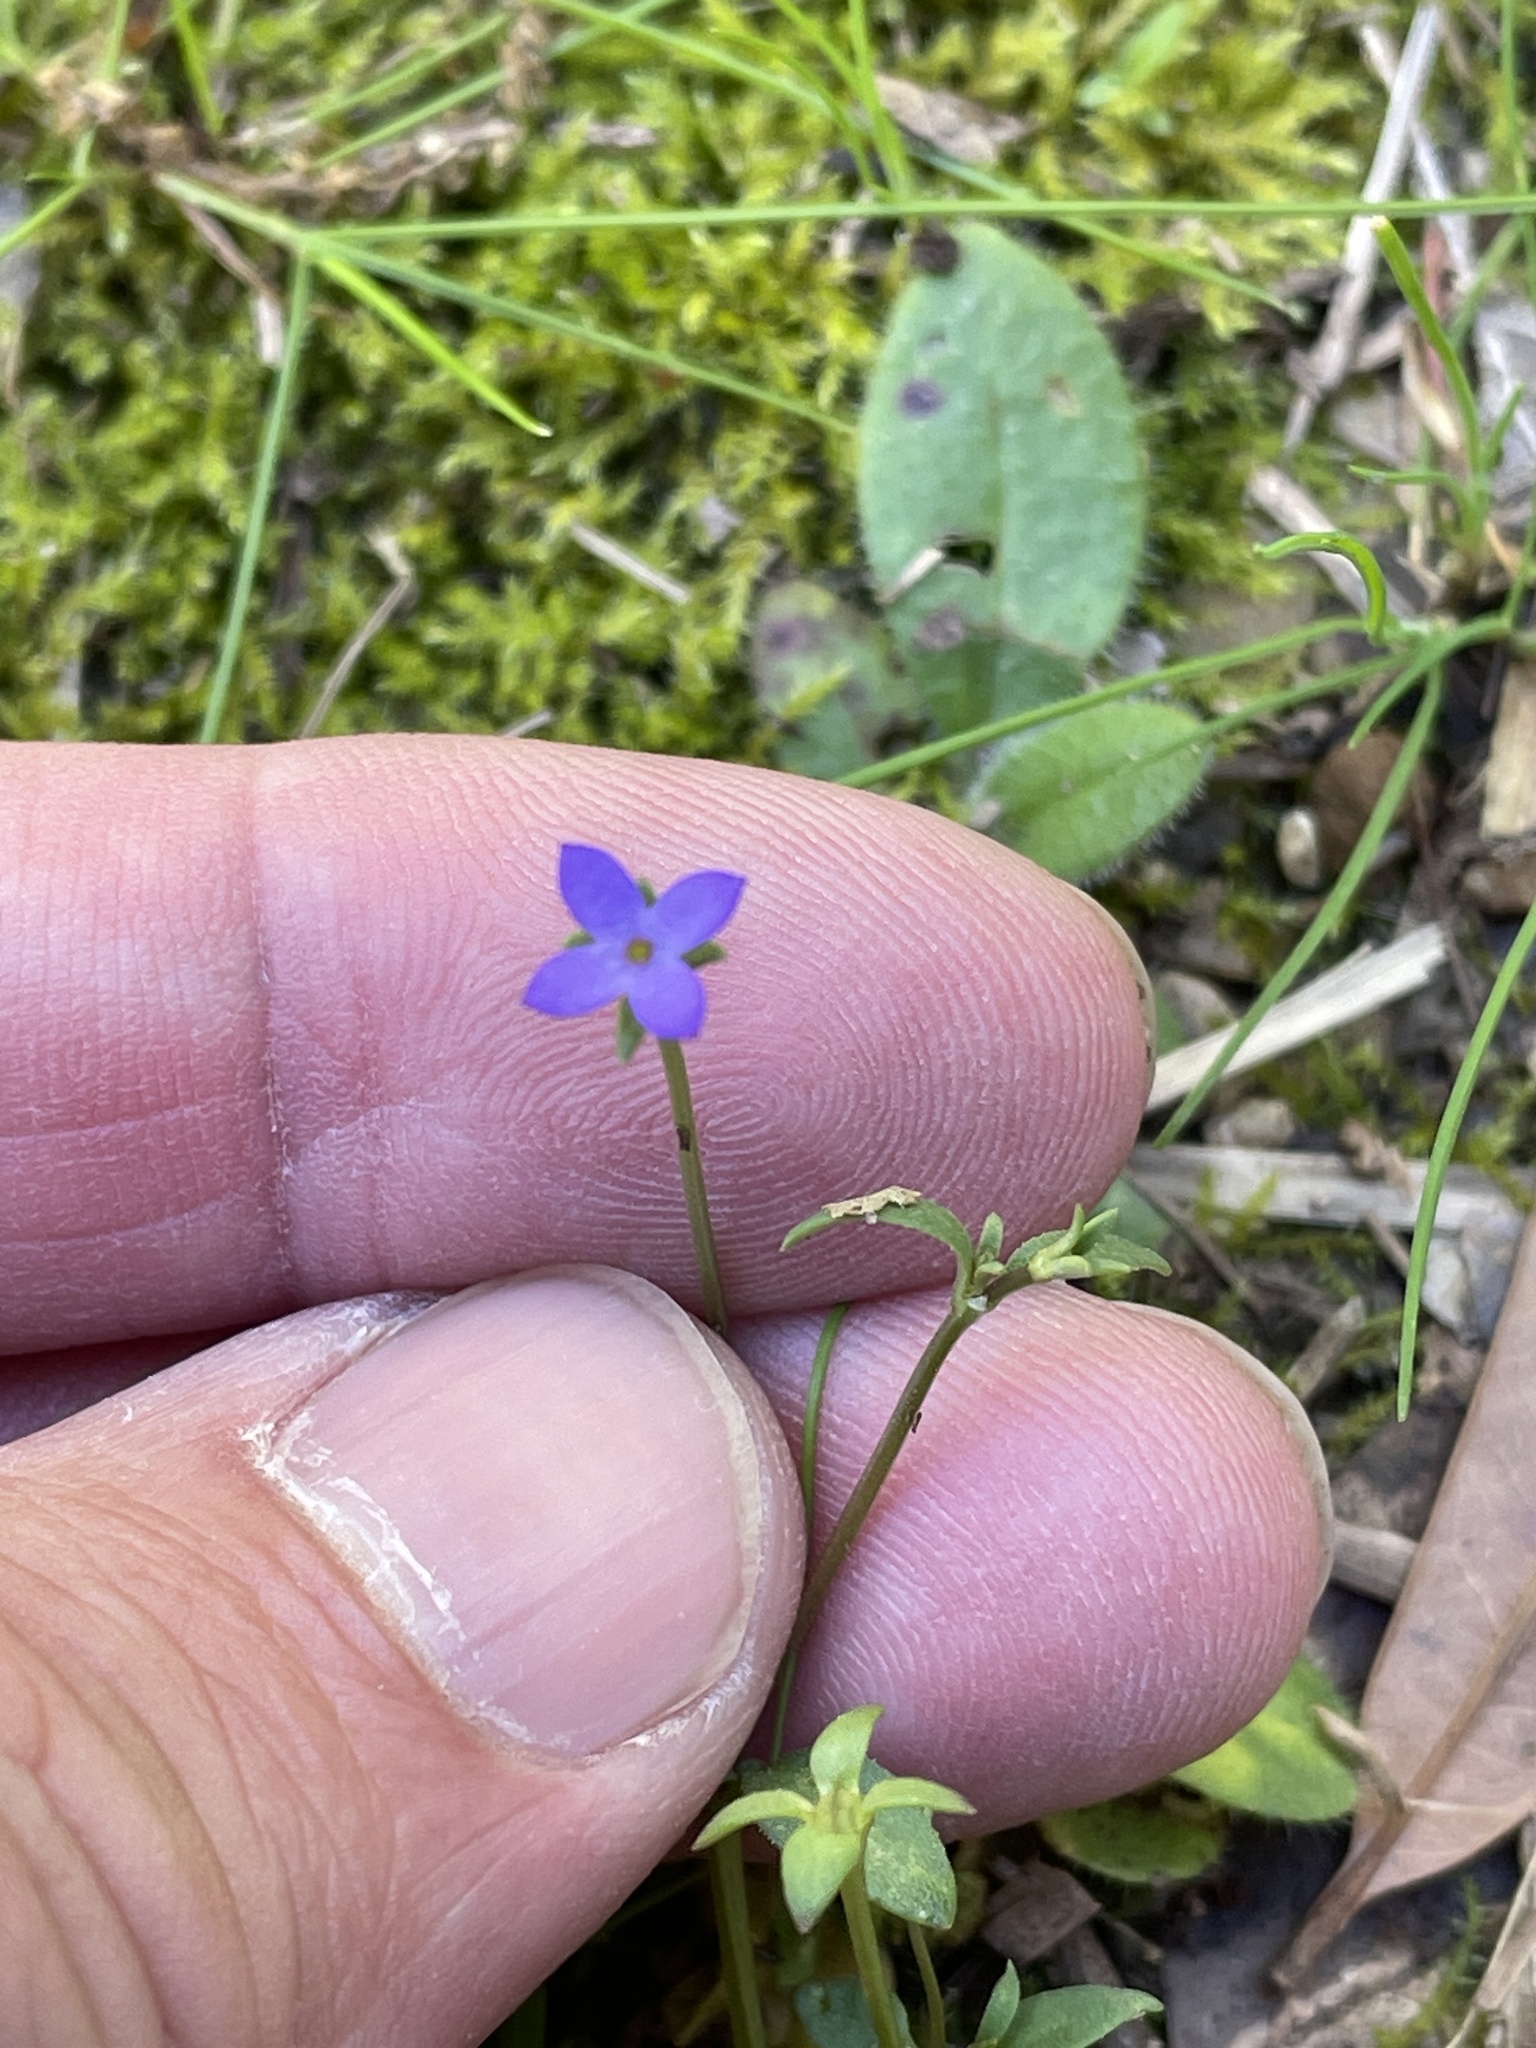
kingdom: Plantae
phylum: Tracheophyta
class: Magnoliopsida
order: Gentianales
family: Rubiaceae
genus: Houstonia
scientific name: Houstonia pusilla
